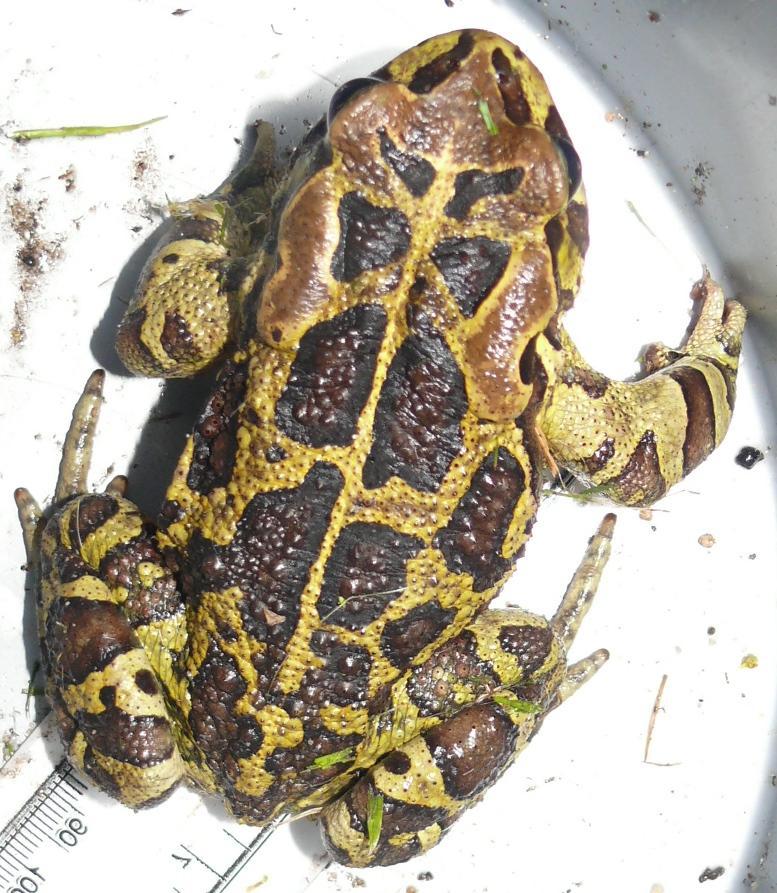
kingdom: Animalia
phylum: Chordata
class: Amphibia
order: Anura
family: Bufonidae
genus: Sclerophrys
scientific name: Sclerophrys pantherina
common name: Panther toad
